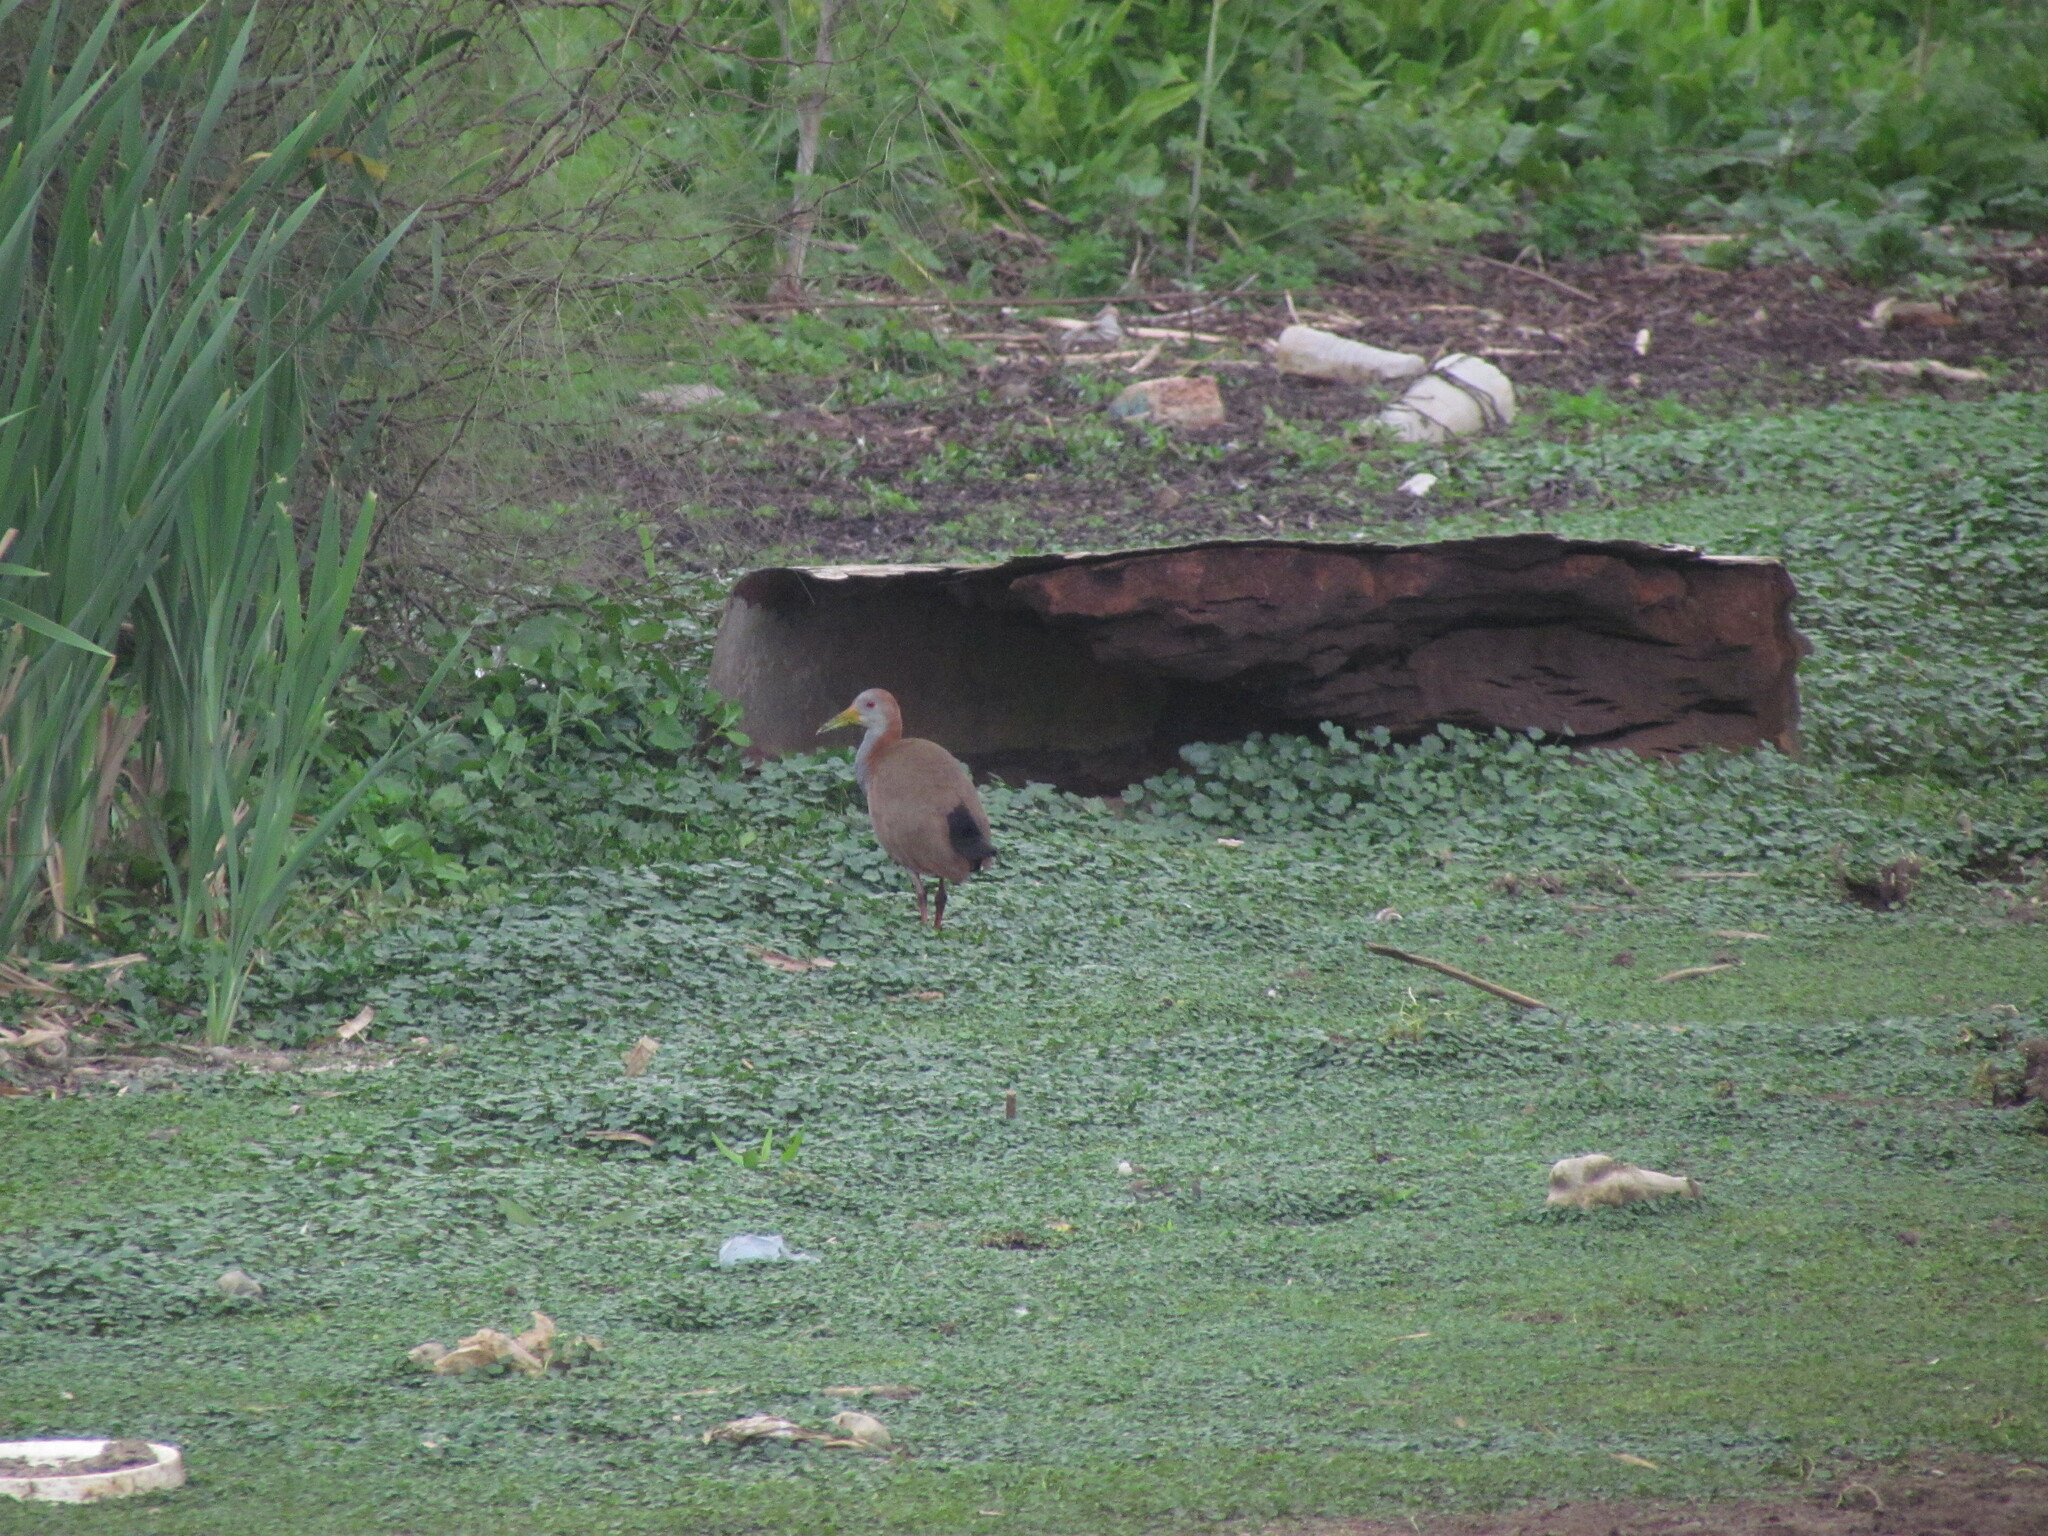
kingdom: Animalia
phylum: Chordata
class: Aves
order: Gruiformes
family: Rallidae
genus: Aramides
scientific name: Aramides ypecaha
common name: Giant wood rail
